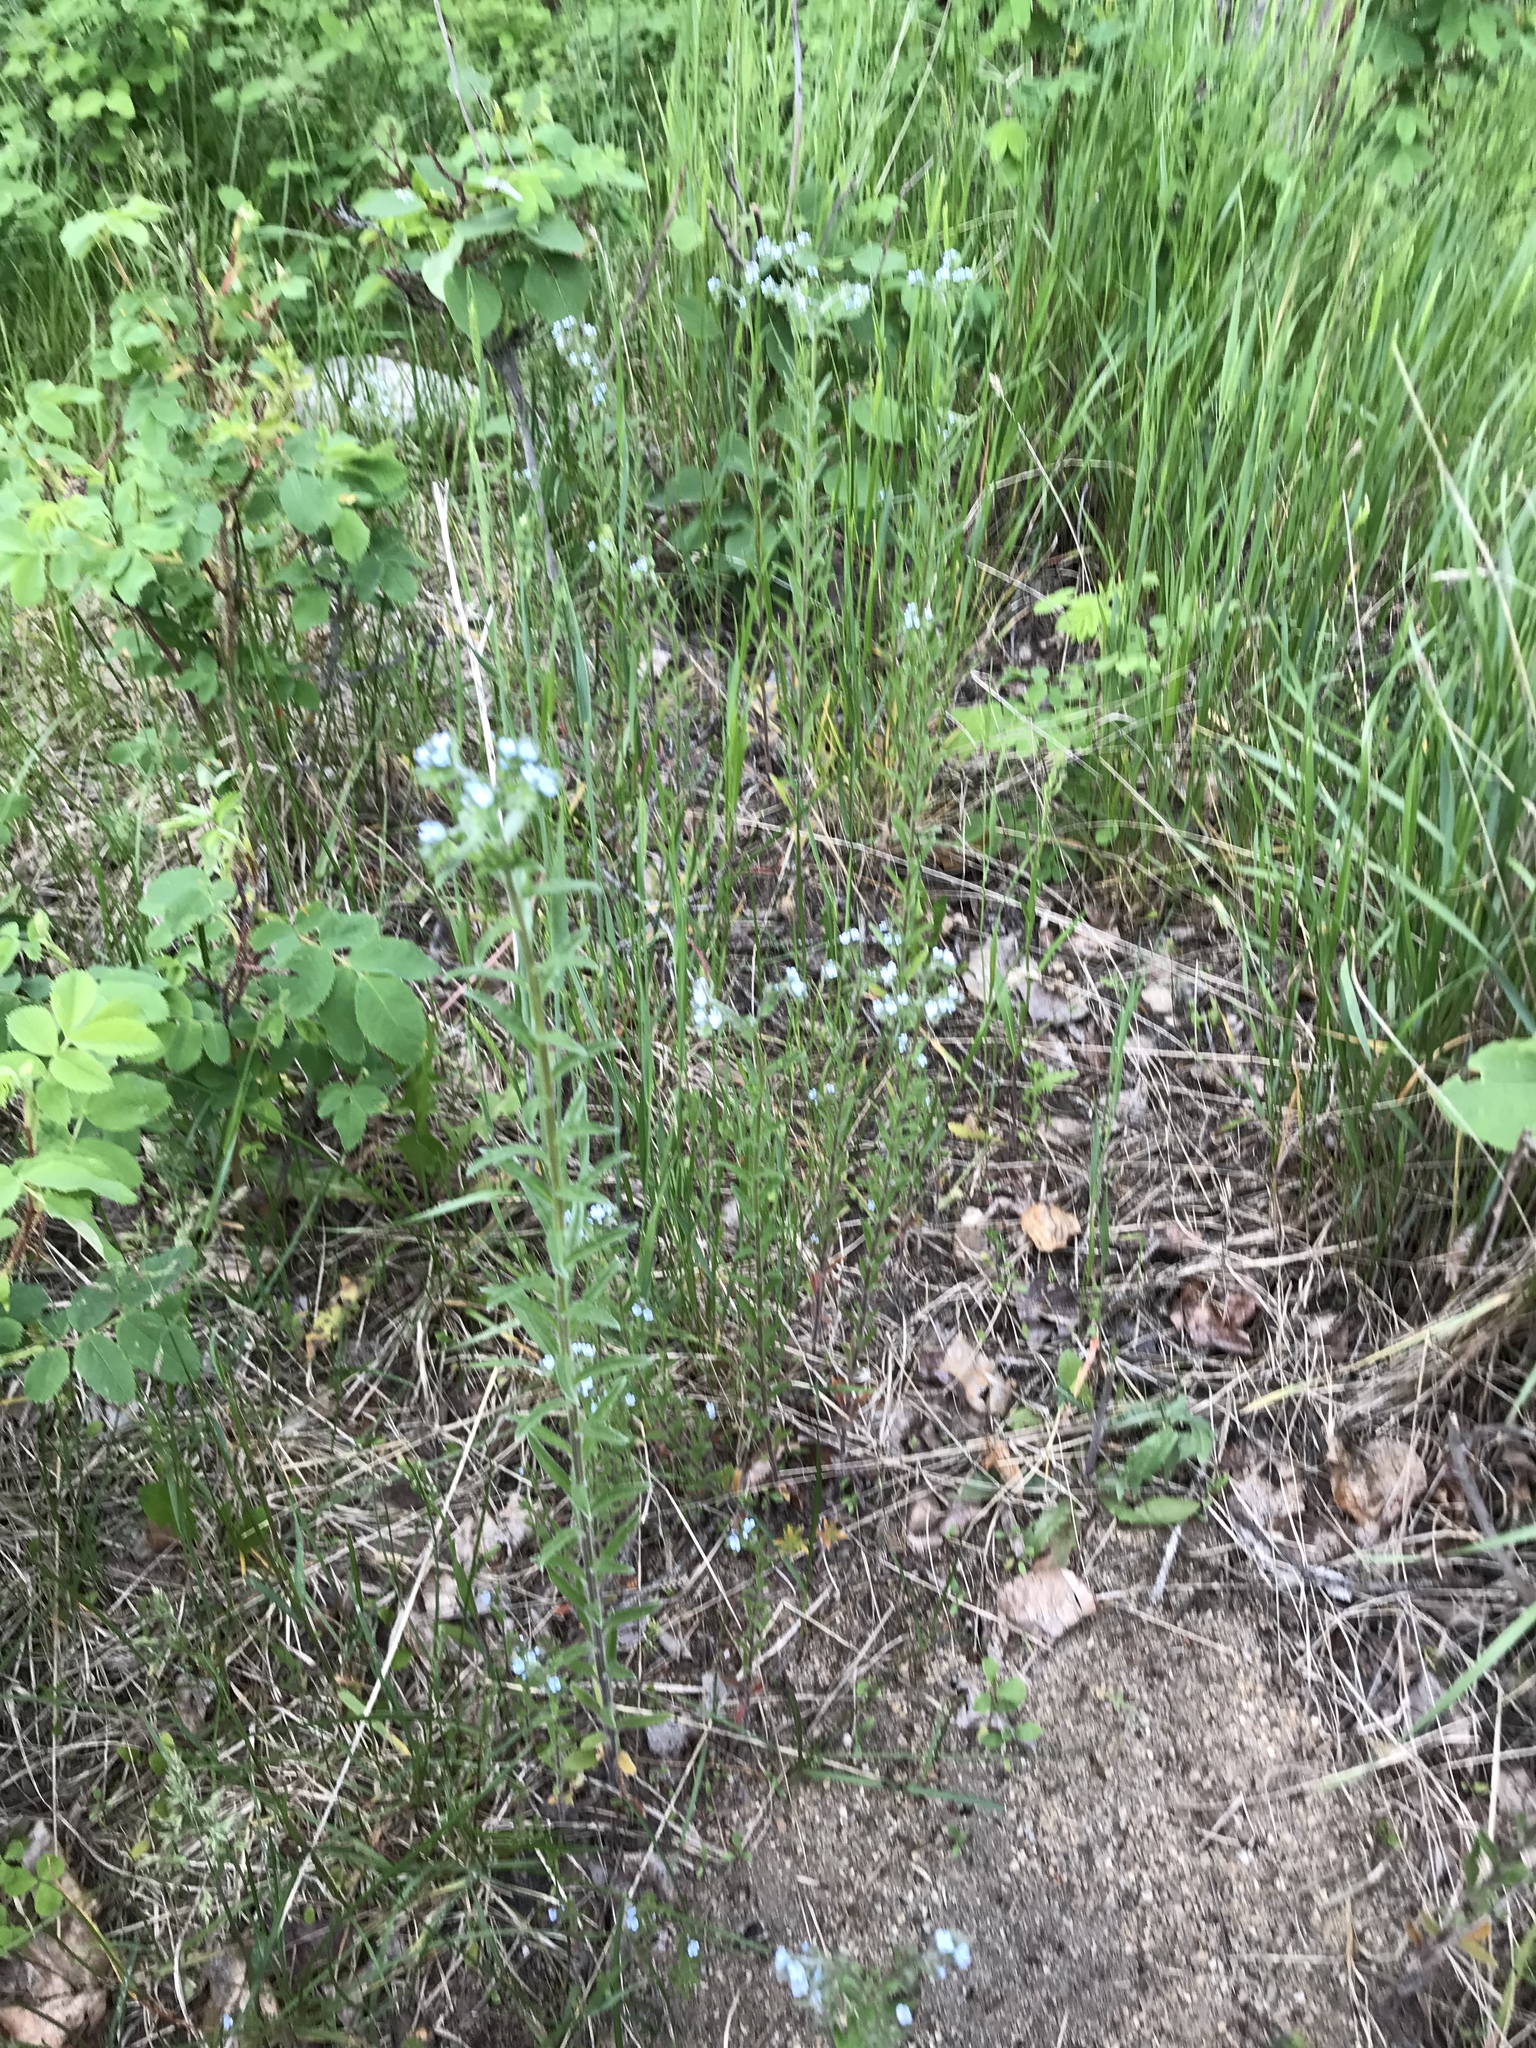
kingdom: Plantae
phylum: Tracheophyta
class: Magnoliopsida
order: Boraginales
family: Boraginaceae
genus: Lappula
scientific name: Lappula squarrosa
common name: European stickseed
